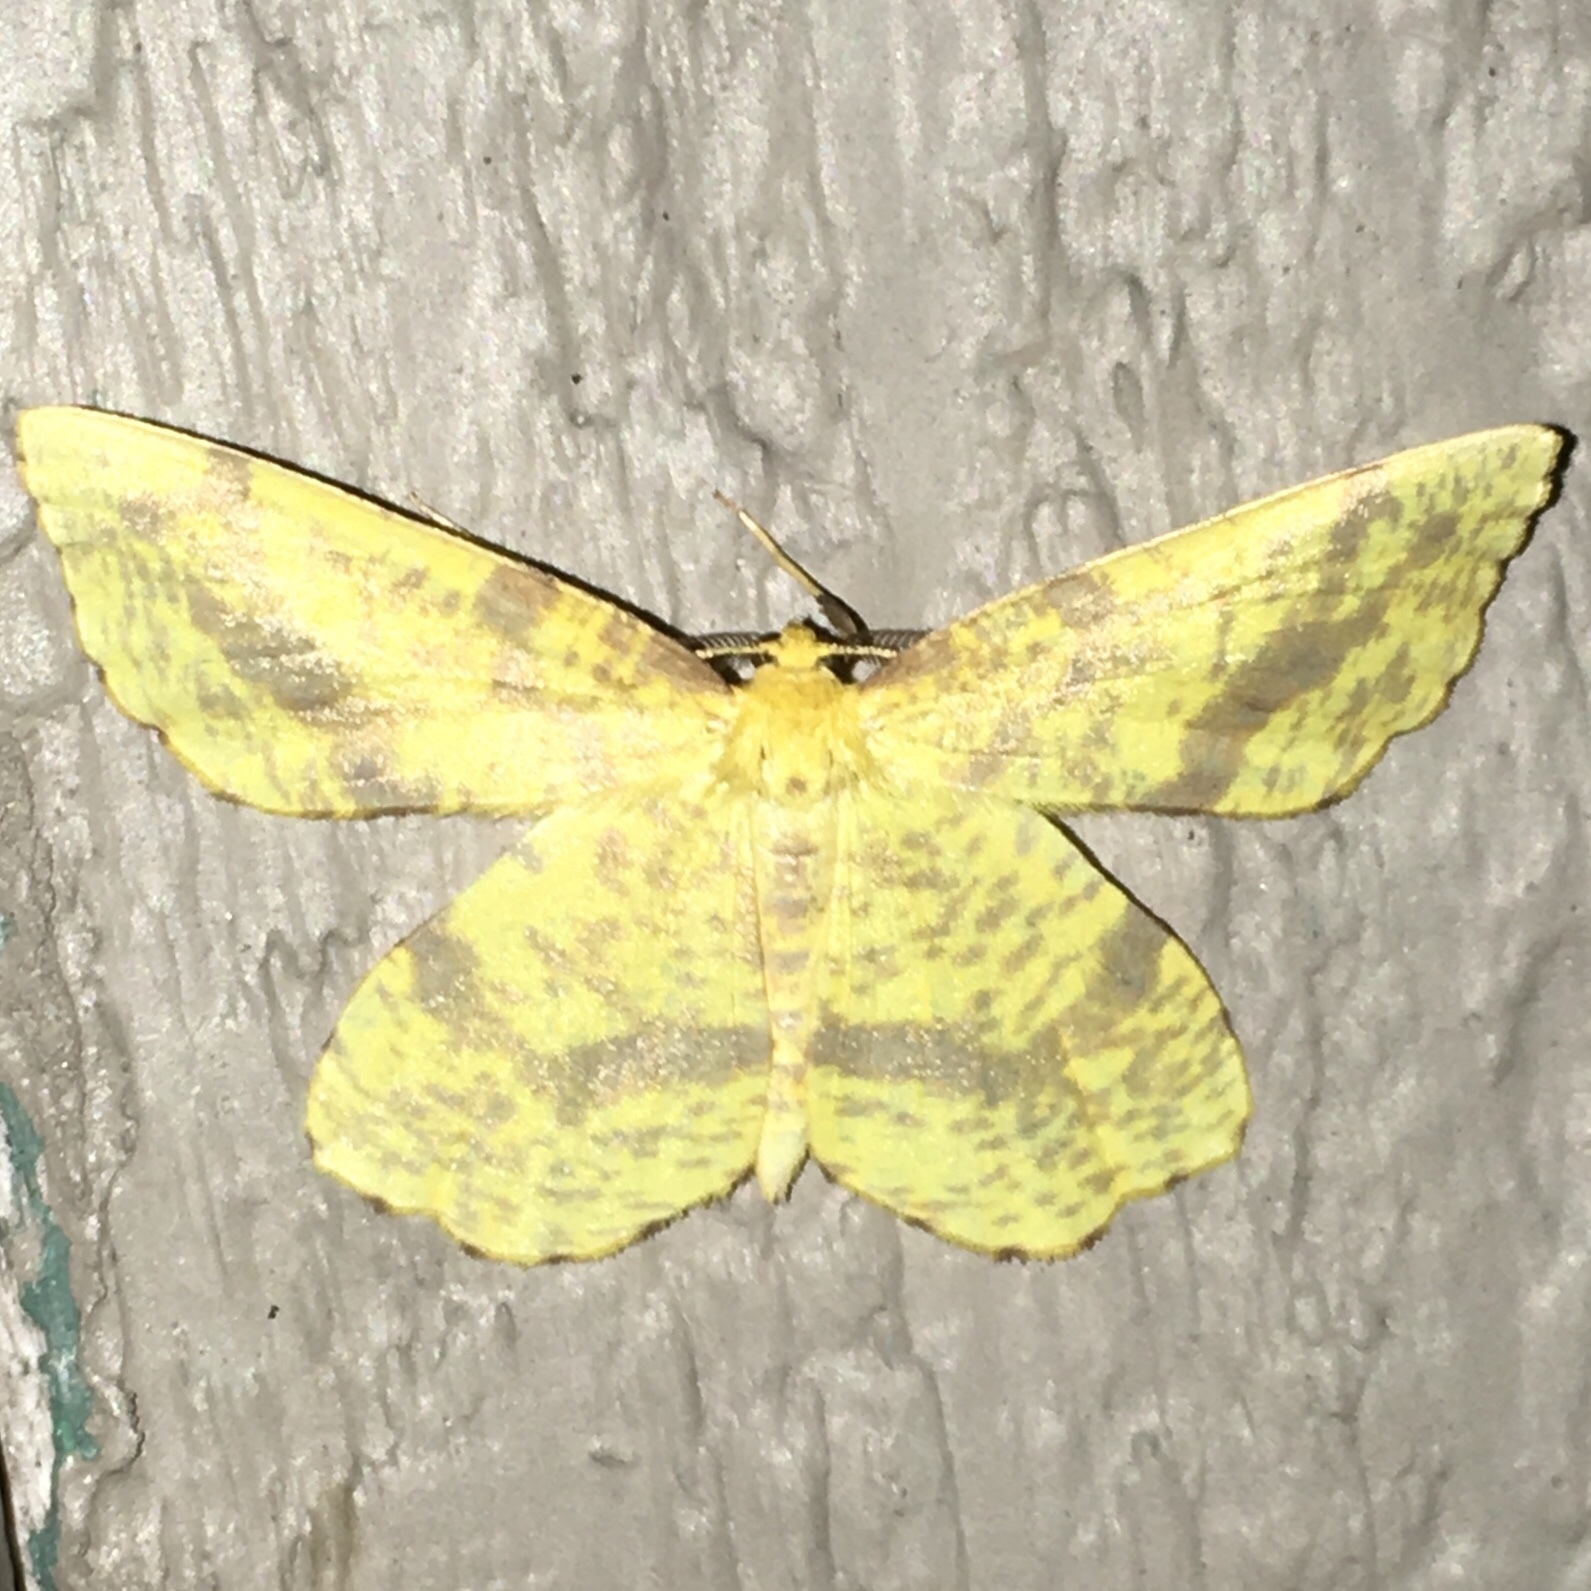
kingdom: Animalia
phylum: Arthropoda
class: Insecta
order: Lepidoptera
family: Geometridae
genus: Xanthotype
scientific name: Xanthotype
